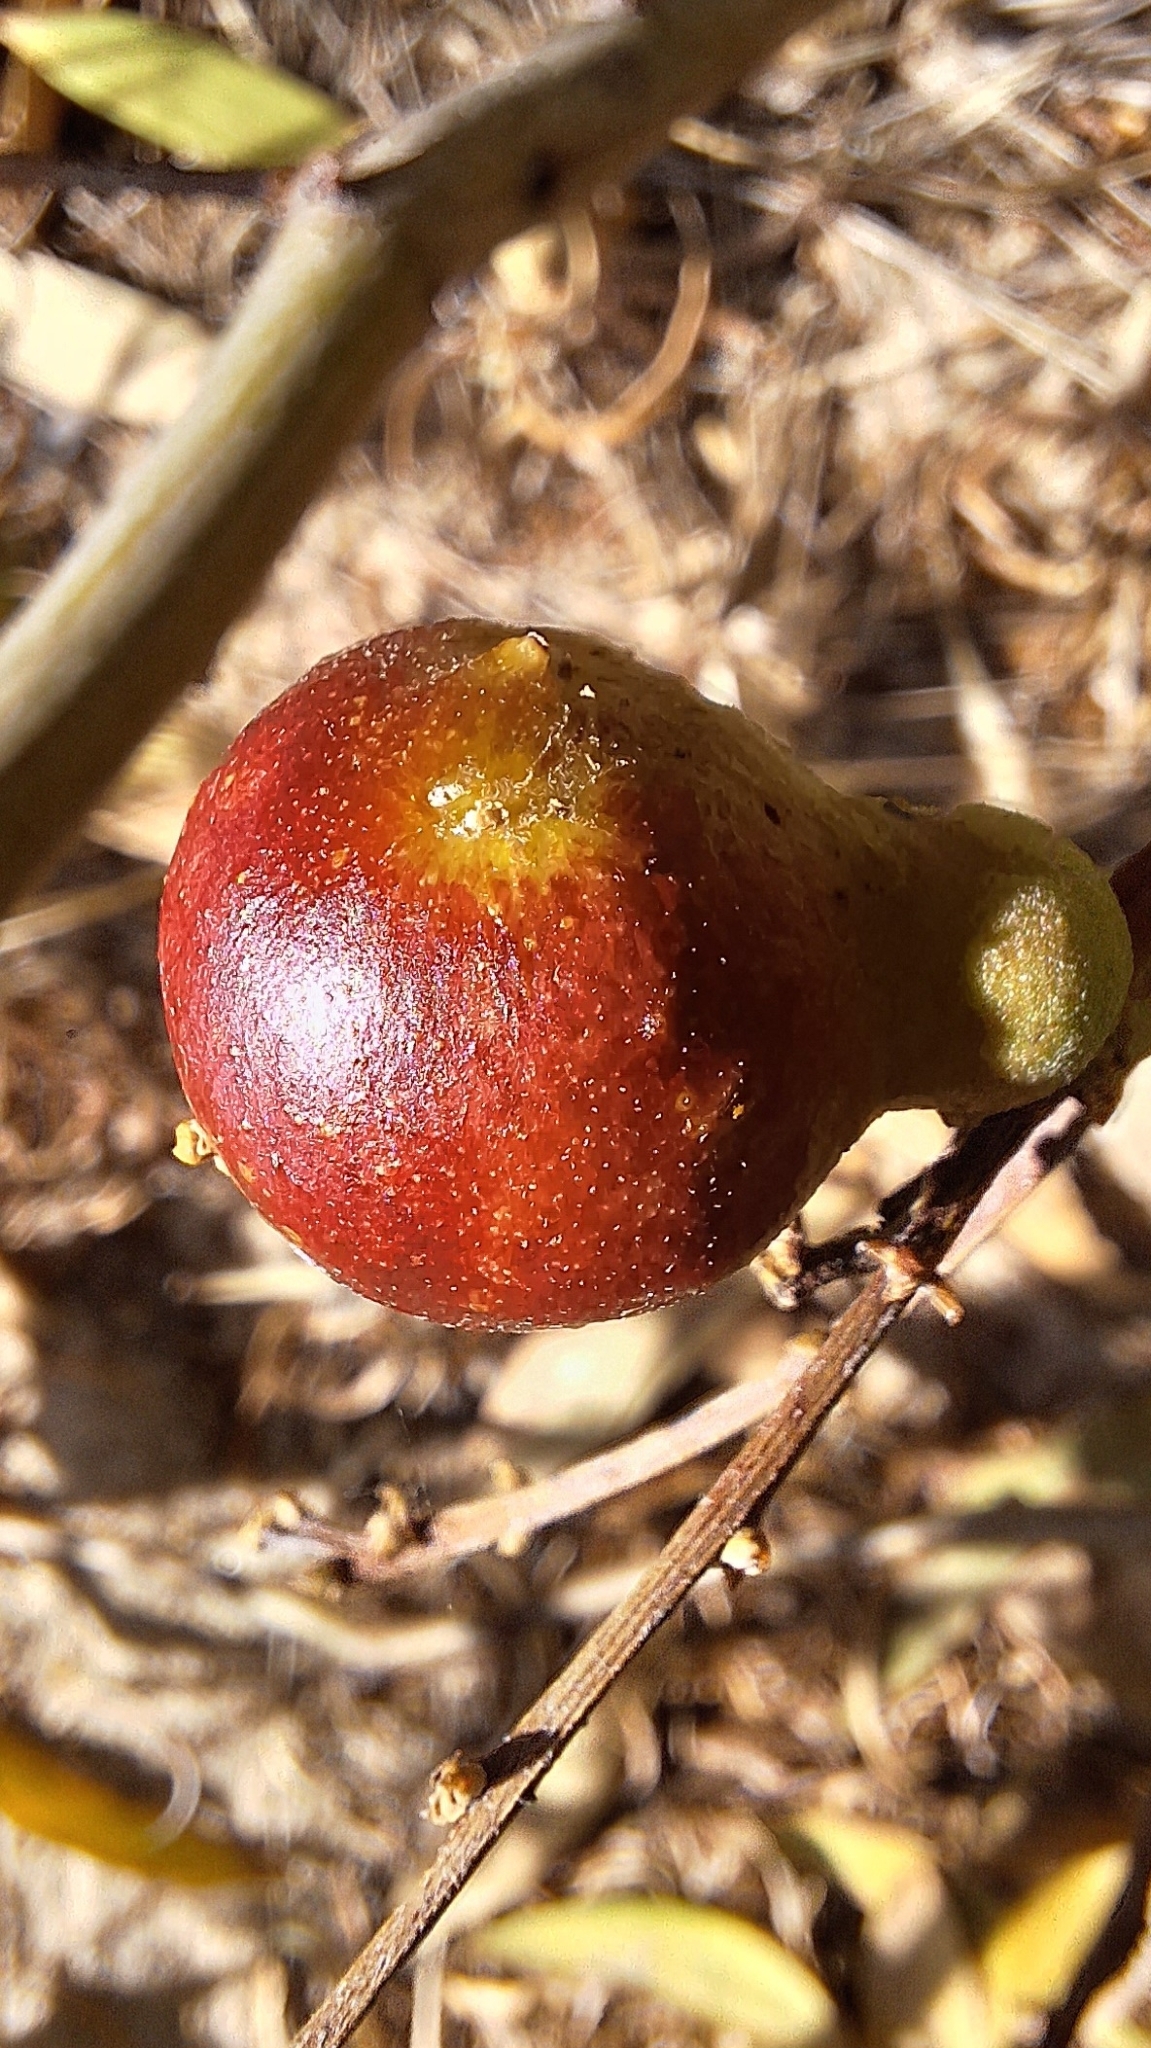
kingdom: Animalia
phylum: Arthropoda
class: Insecta
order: Hymenoptera
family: Pteromalidae
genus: Trichilogaster
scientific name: Trichilogaster acaciaelongifoliae
